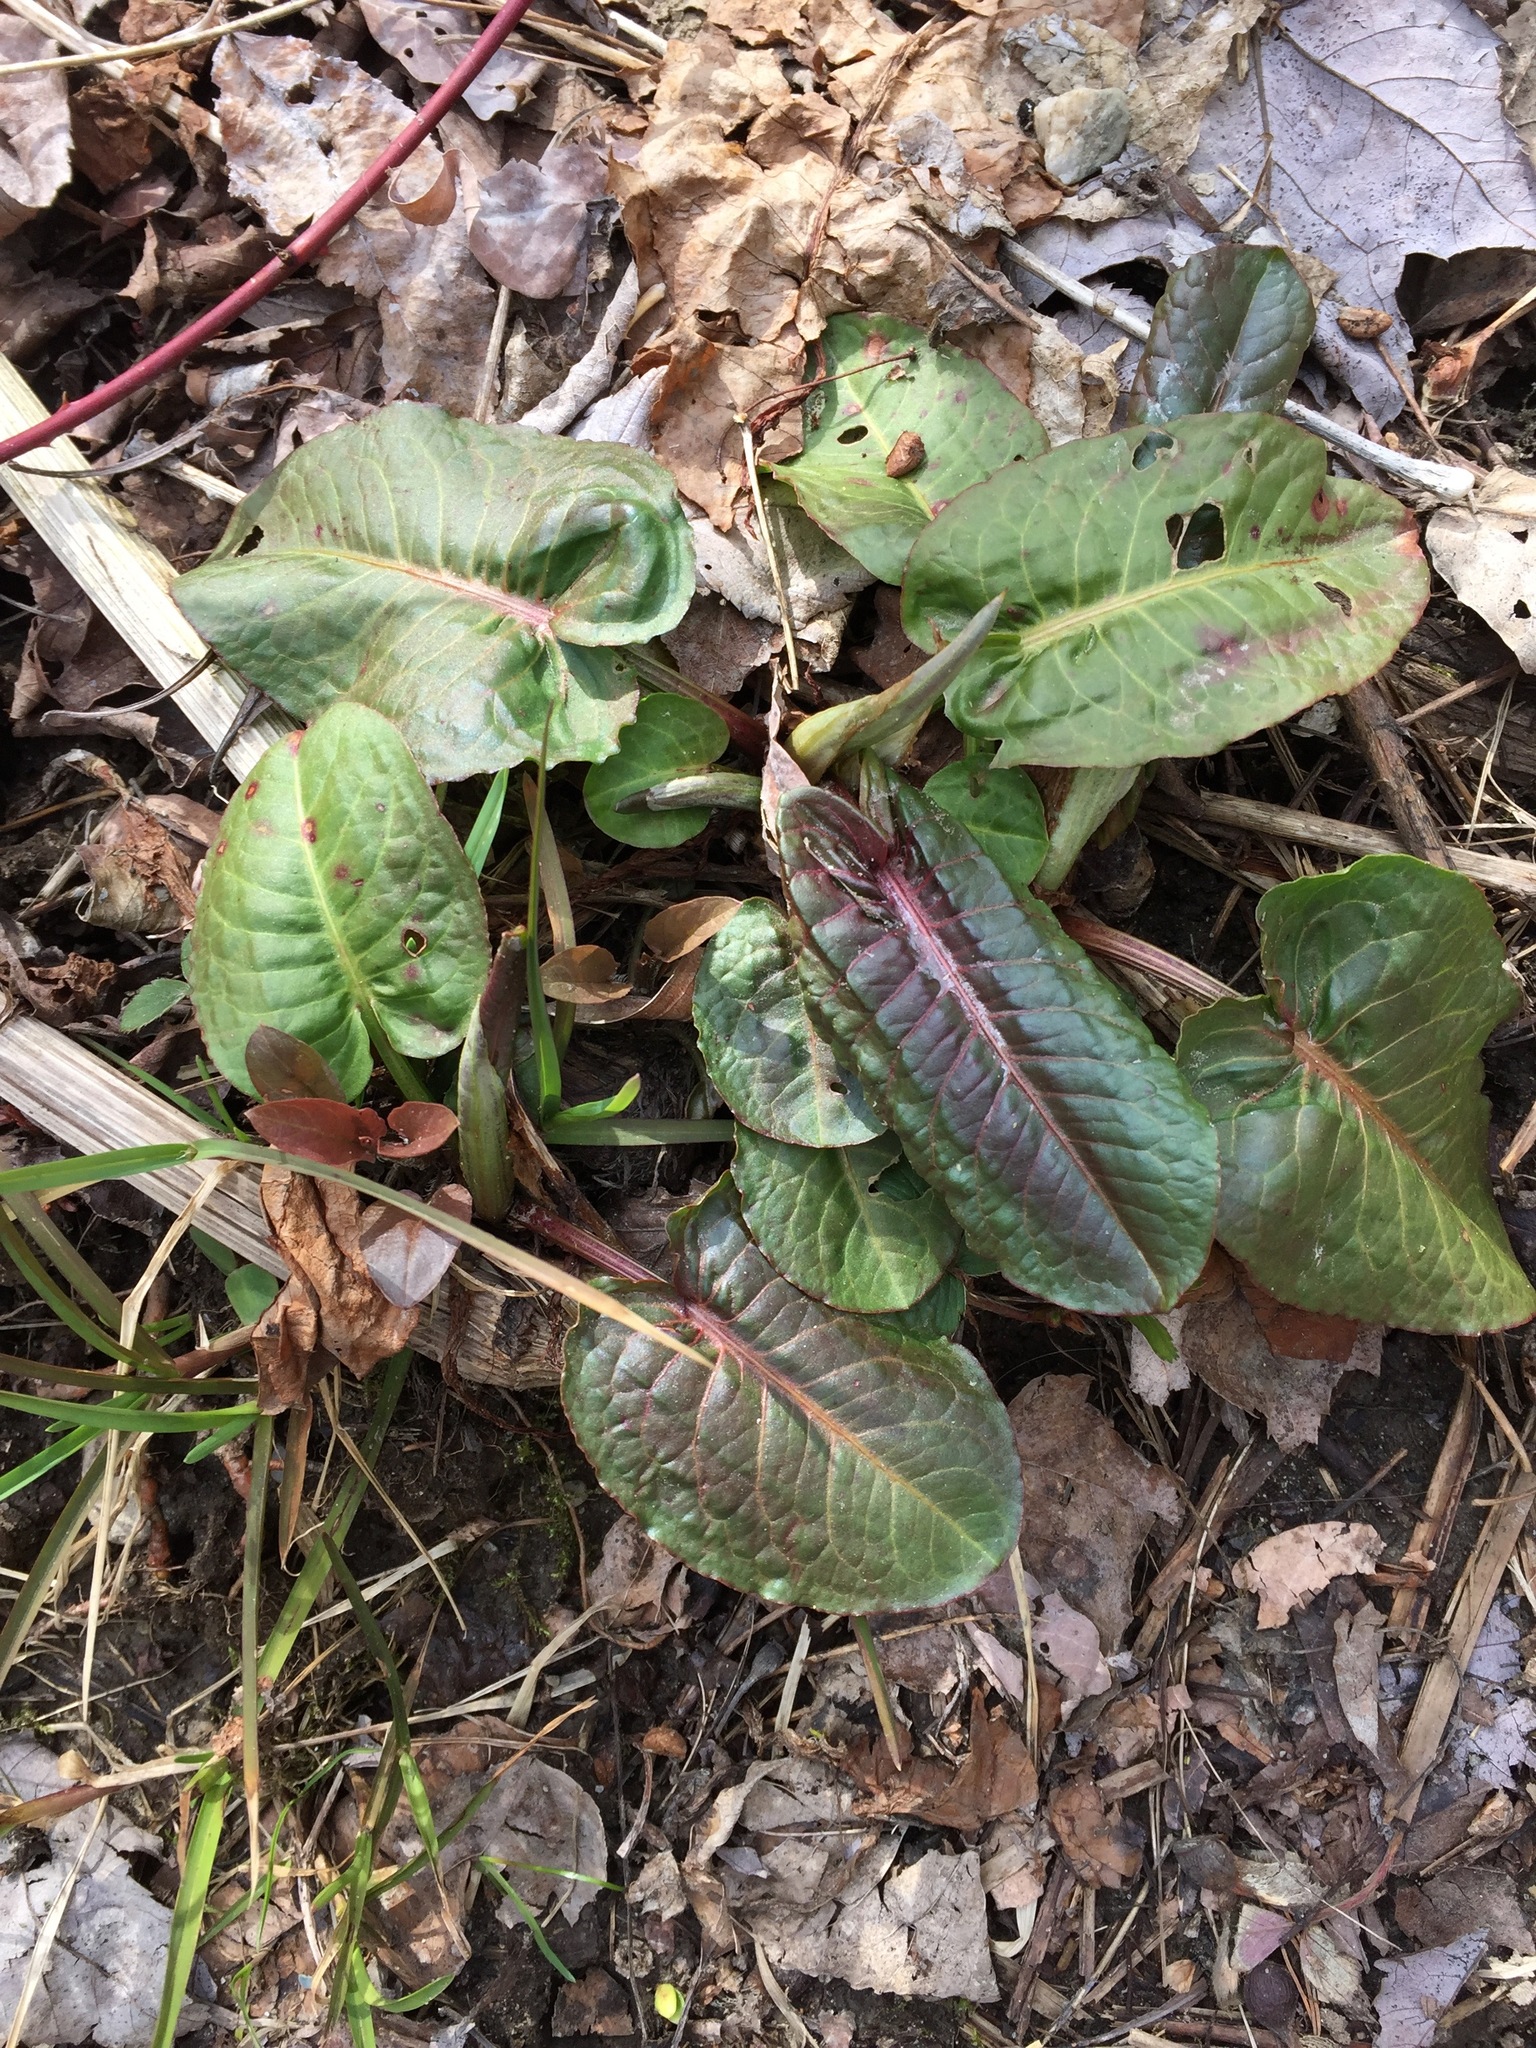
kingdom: Plantae
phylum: Tracheophyta
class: Magnoliopsida
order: Caryophyllales
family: Polygonaceae
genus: Rumex
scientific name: Rumex obtusifolius
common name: Bitter dock
